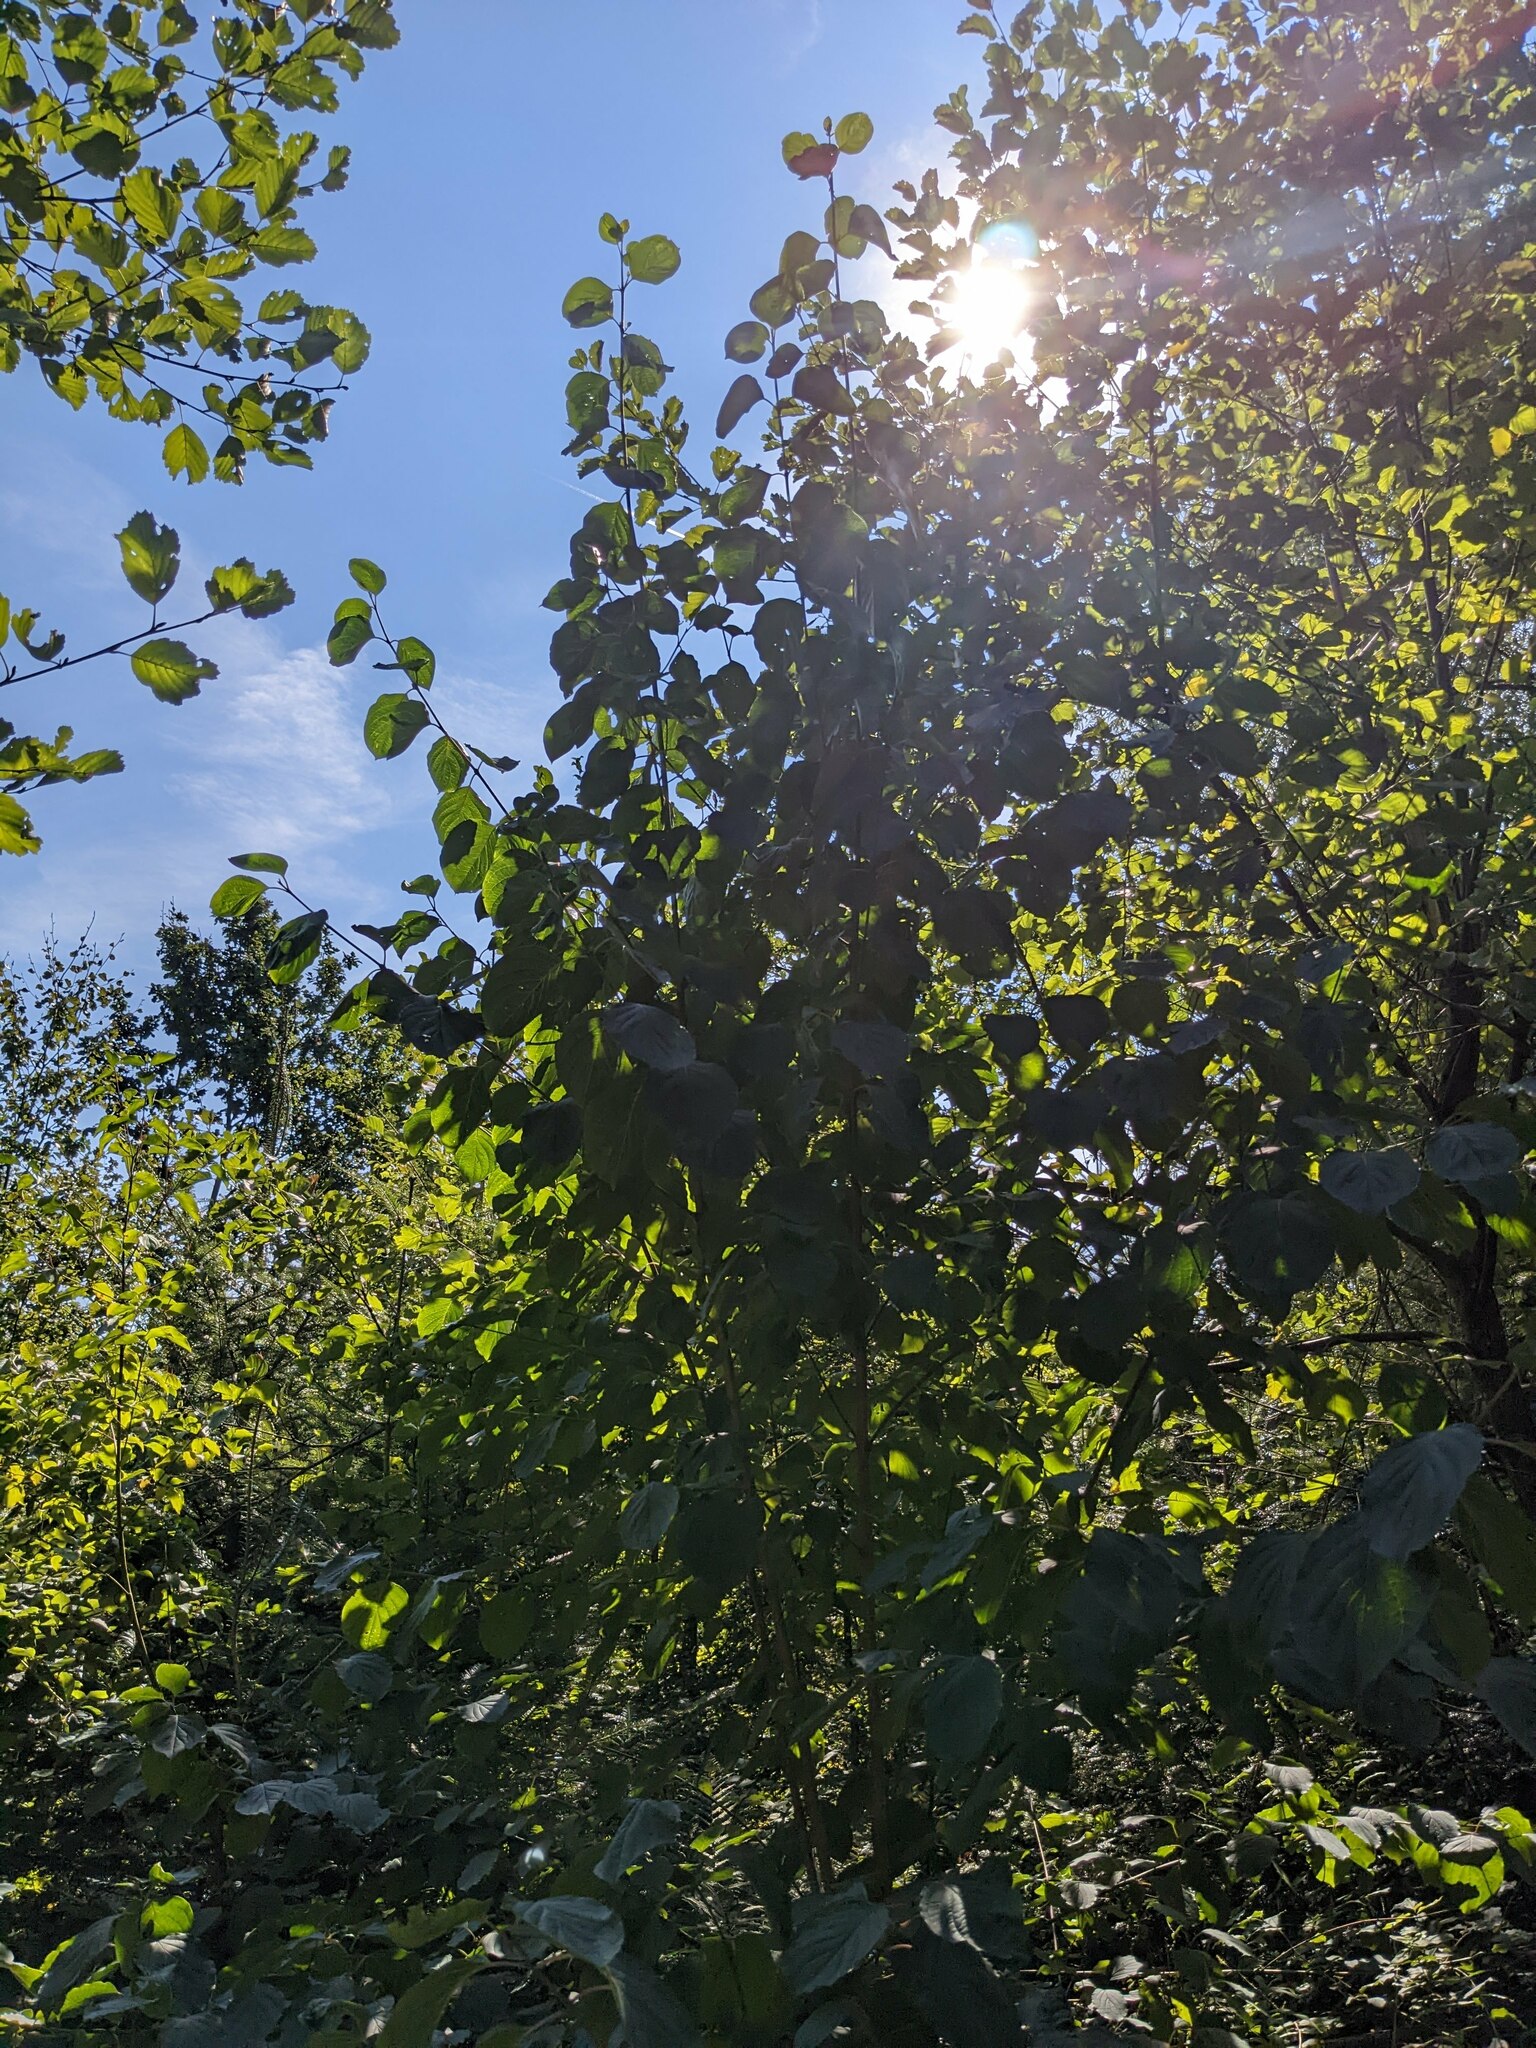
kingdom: Plantae
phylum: Tracheophyta
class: Magnoliopsida
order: Cornales
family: Cornaceae
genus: Cornus
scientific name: Cornus sanguinea
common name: Dogwood
